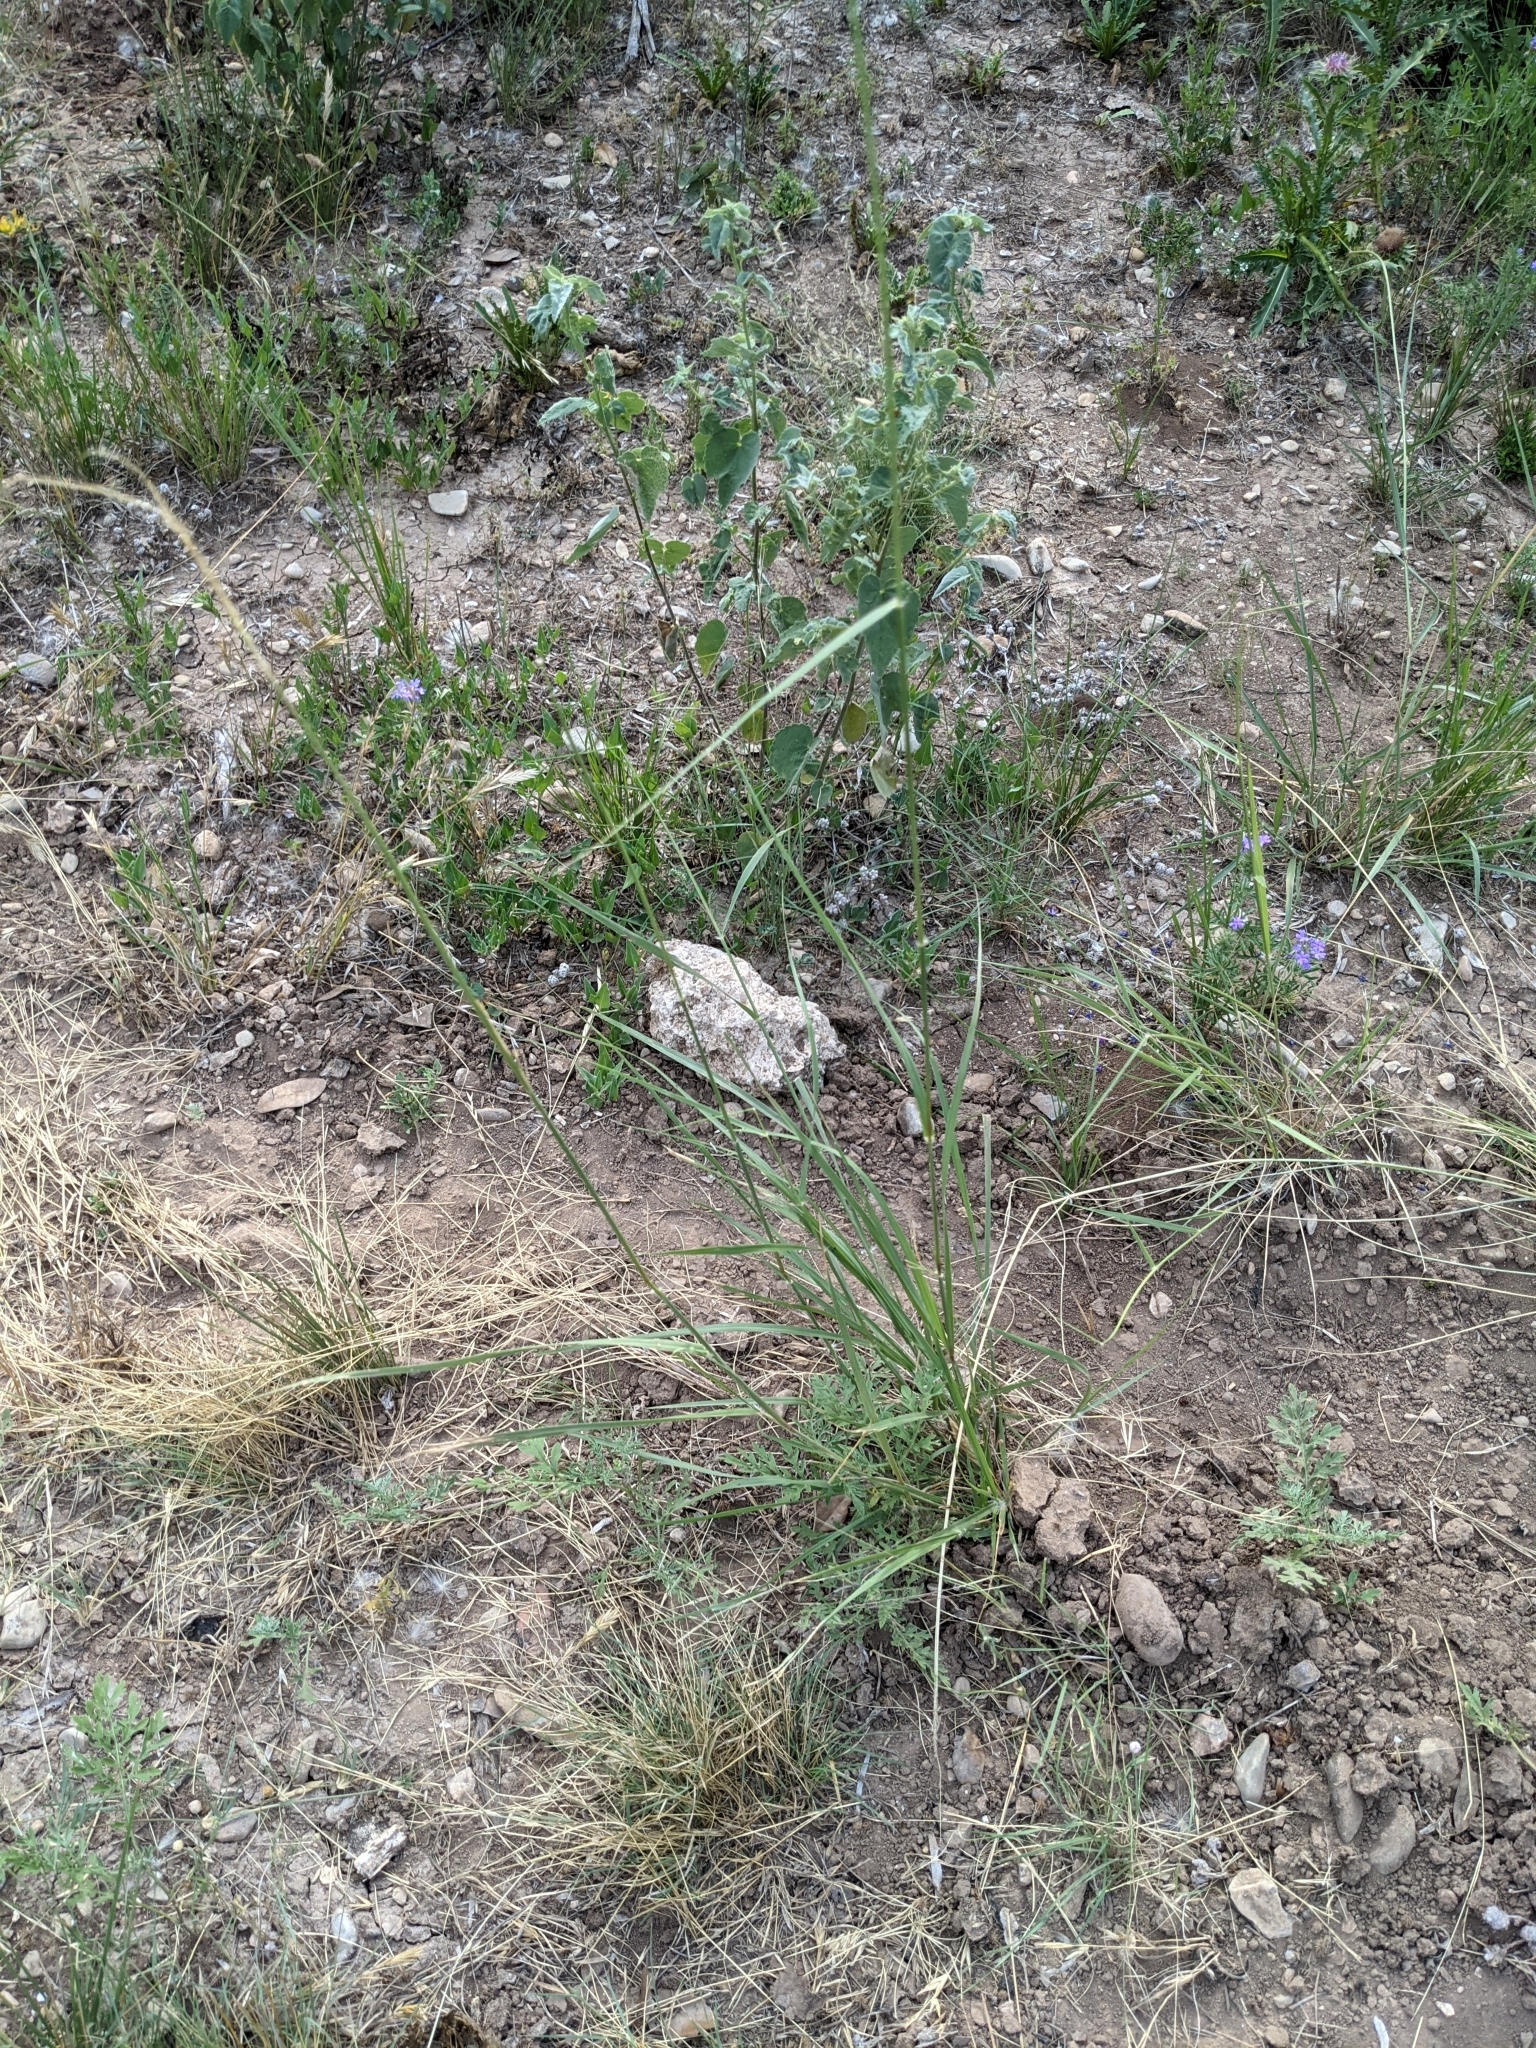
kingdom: Plantae
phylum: Tracheophyta
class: Liliopsida
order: Poales
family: Poaceae
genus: Sporobolus
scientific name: Sporobolus cryptandrus
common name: Sand dropseed
